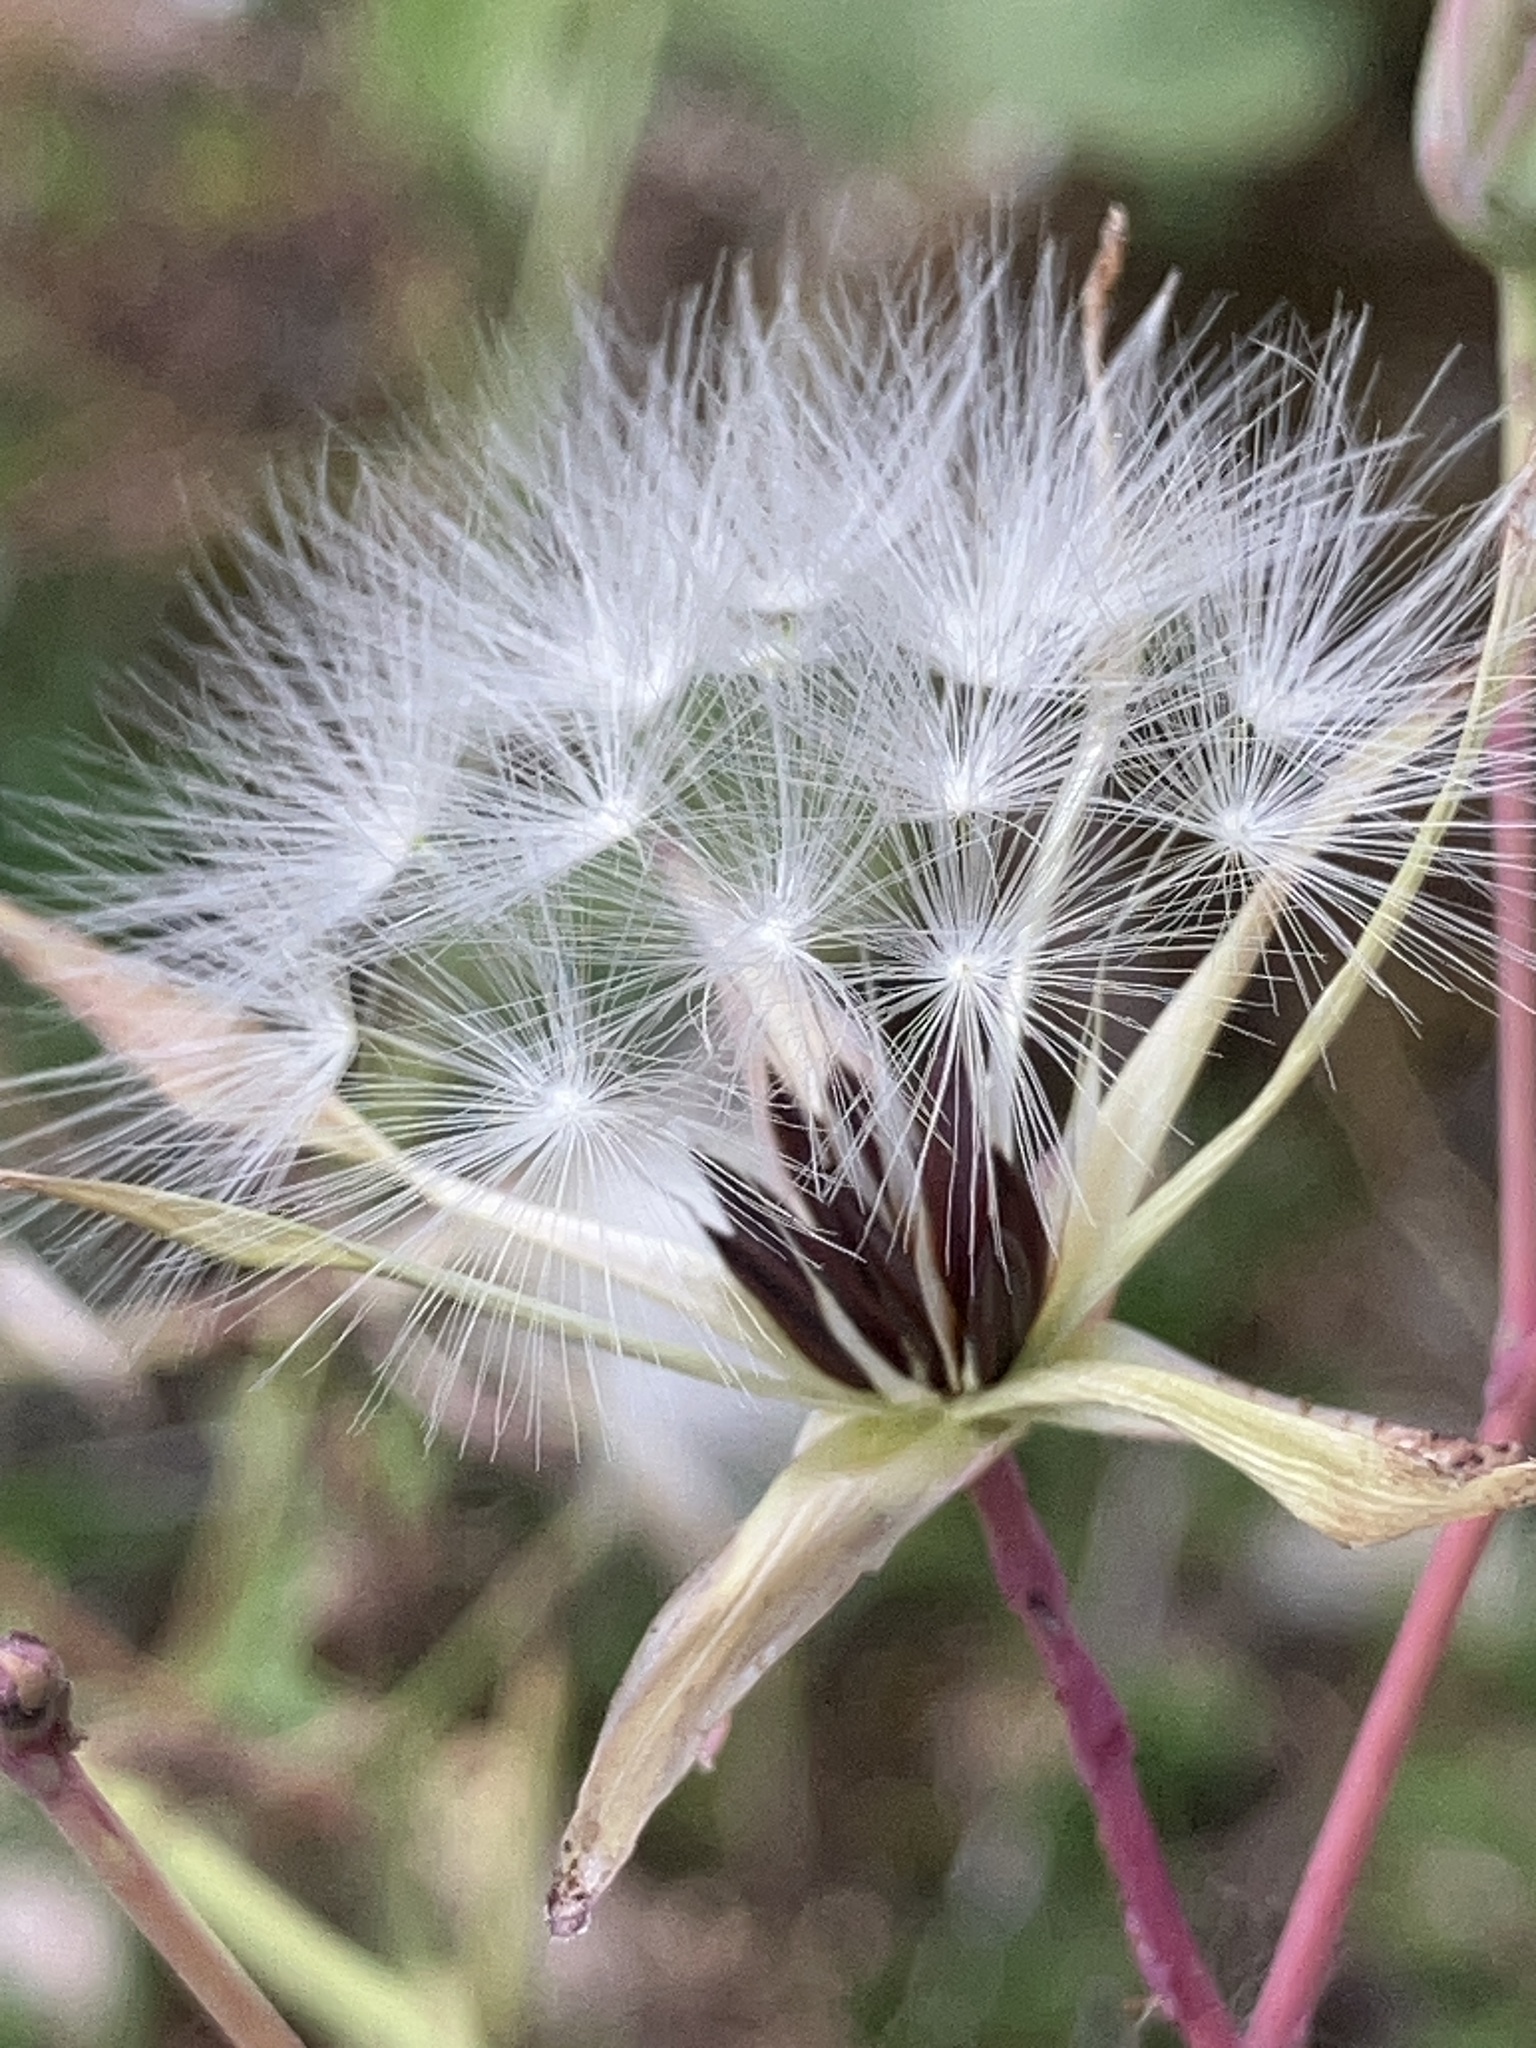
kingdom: Plantae
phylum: Tracheophyta
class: Magnoliopsida
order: Asterales
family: Asteraceae
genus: Lactuca
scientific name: Lactuca perennis
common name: Mountain lettuce
